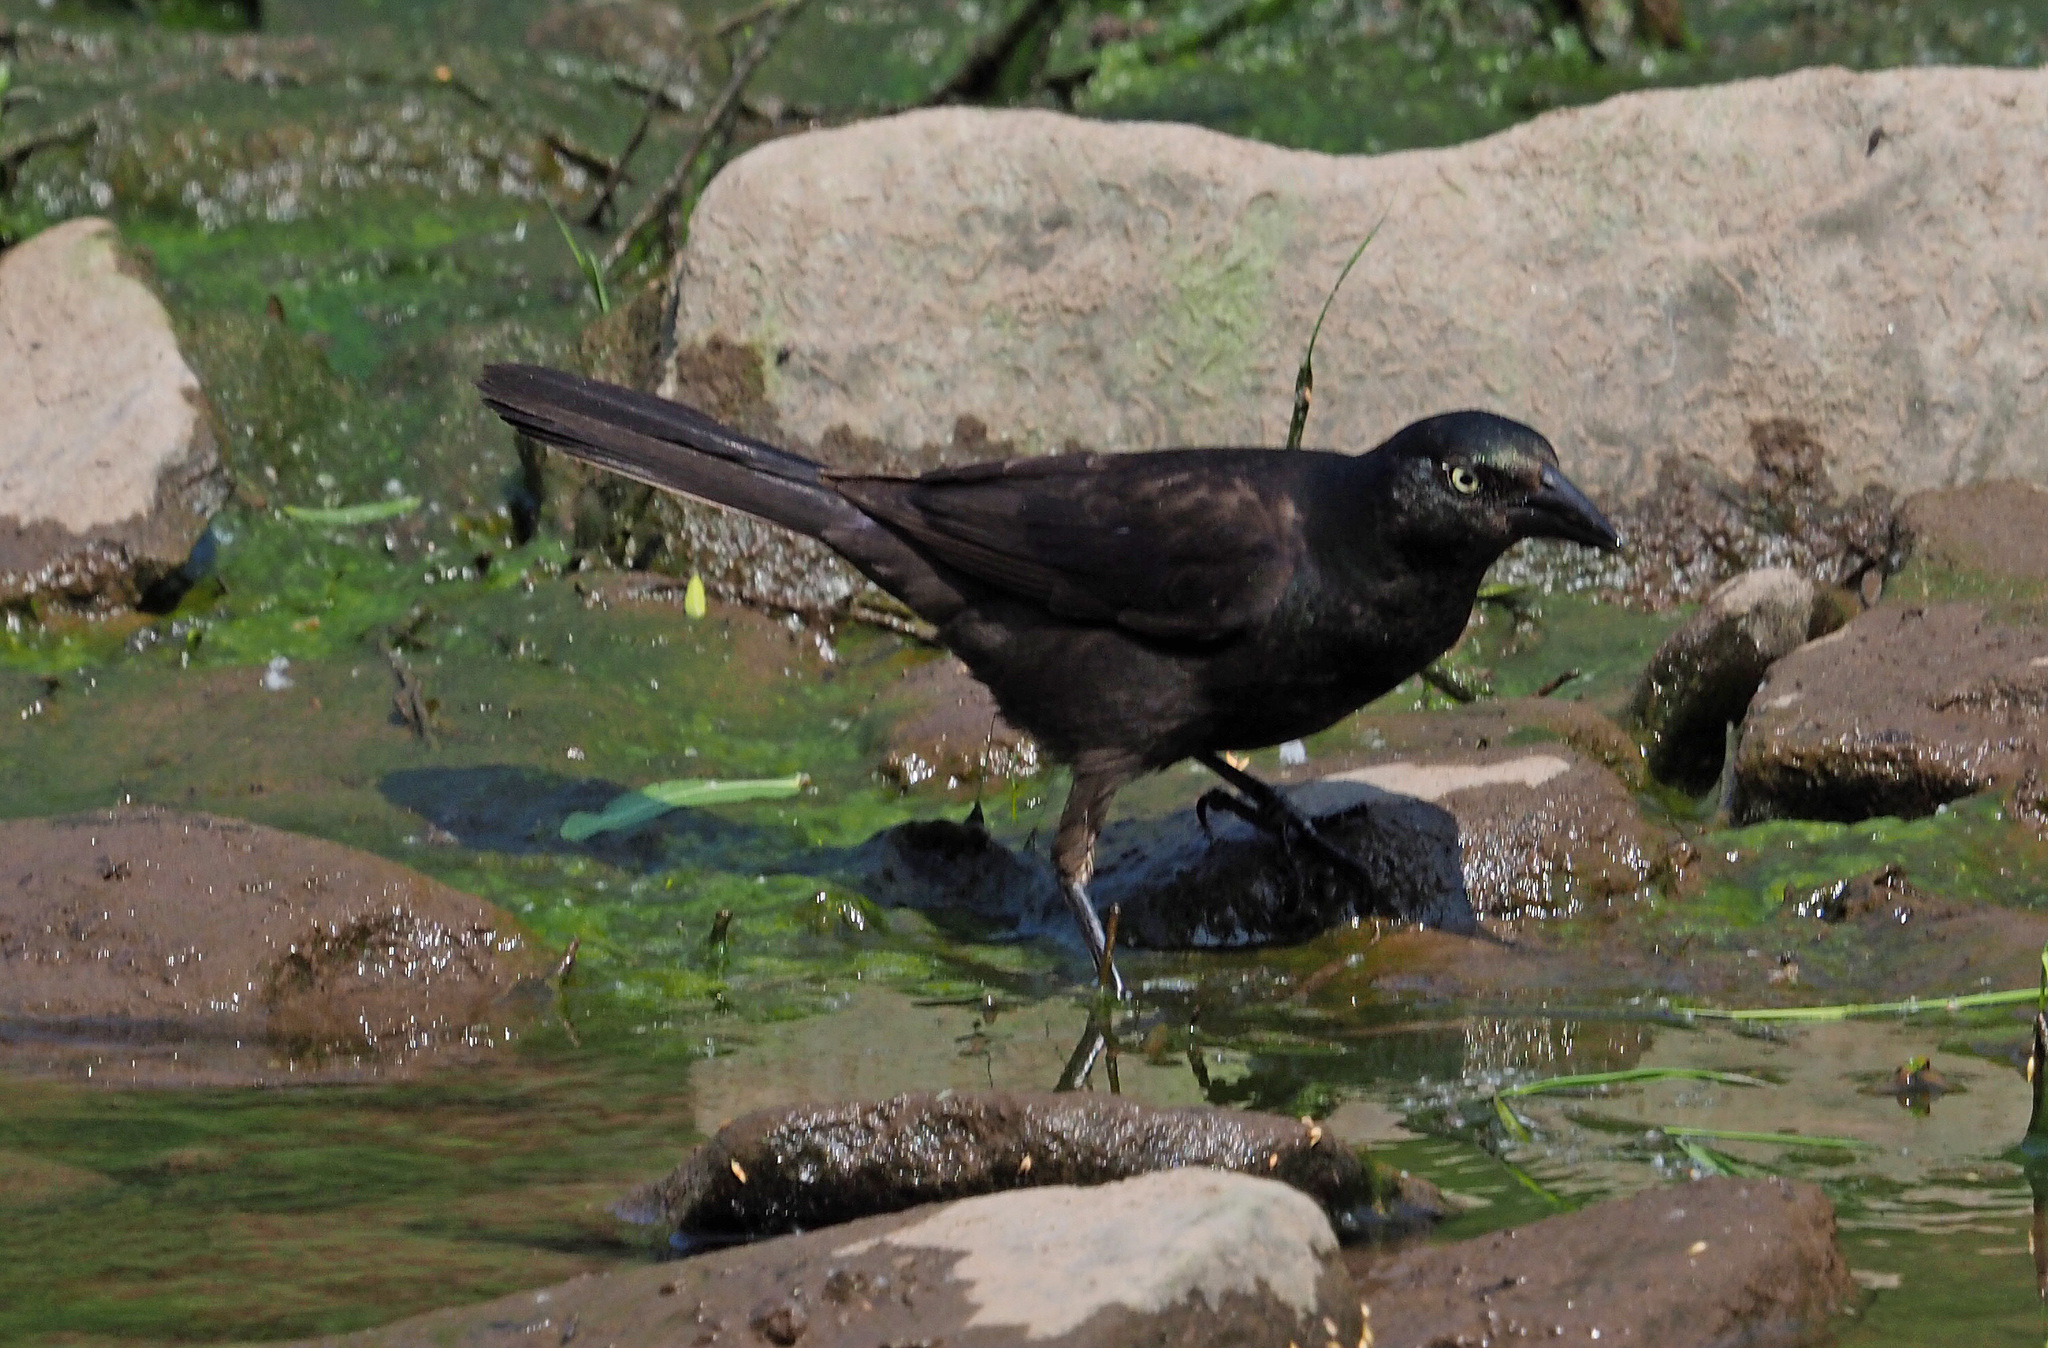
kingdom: Animalia
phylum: Chordata
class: Aves
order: Passeriformes
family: Icteridae
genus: Quiscalus
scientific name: Quiscalus quiscula
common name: Common grackle
